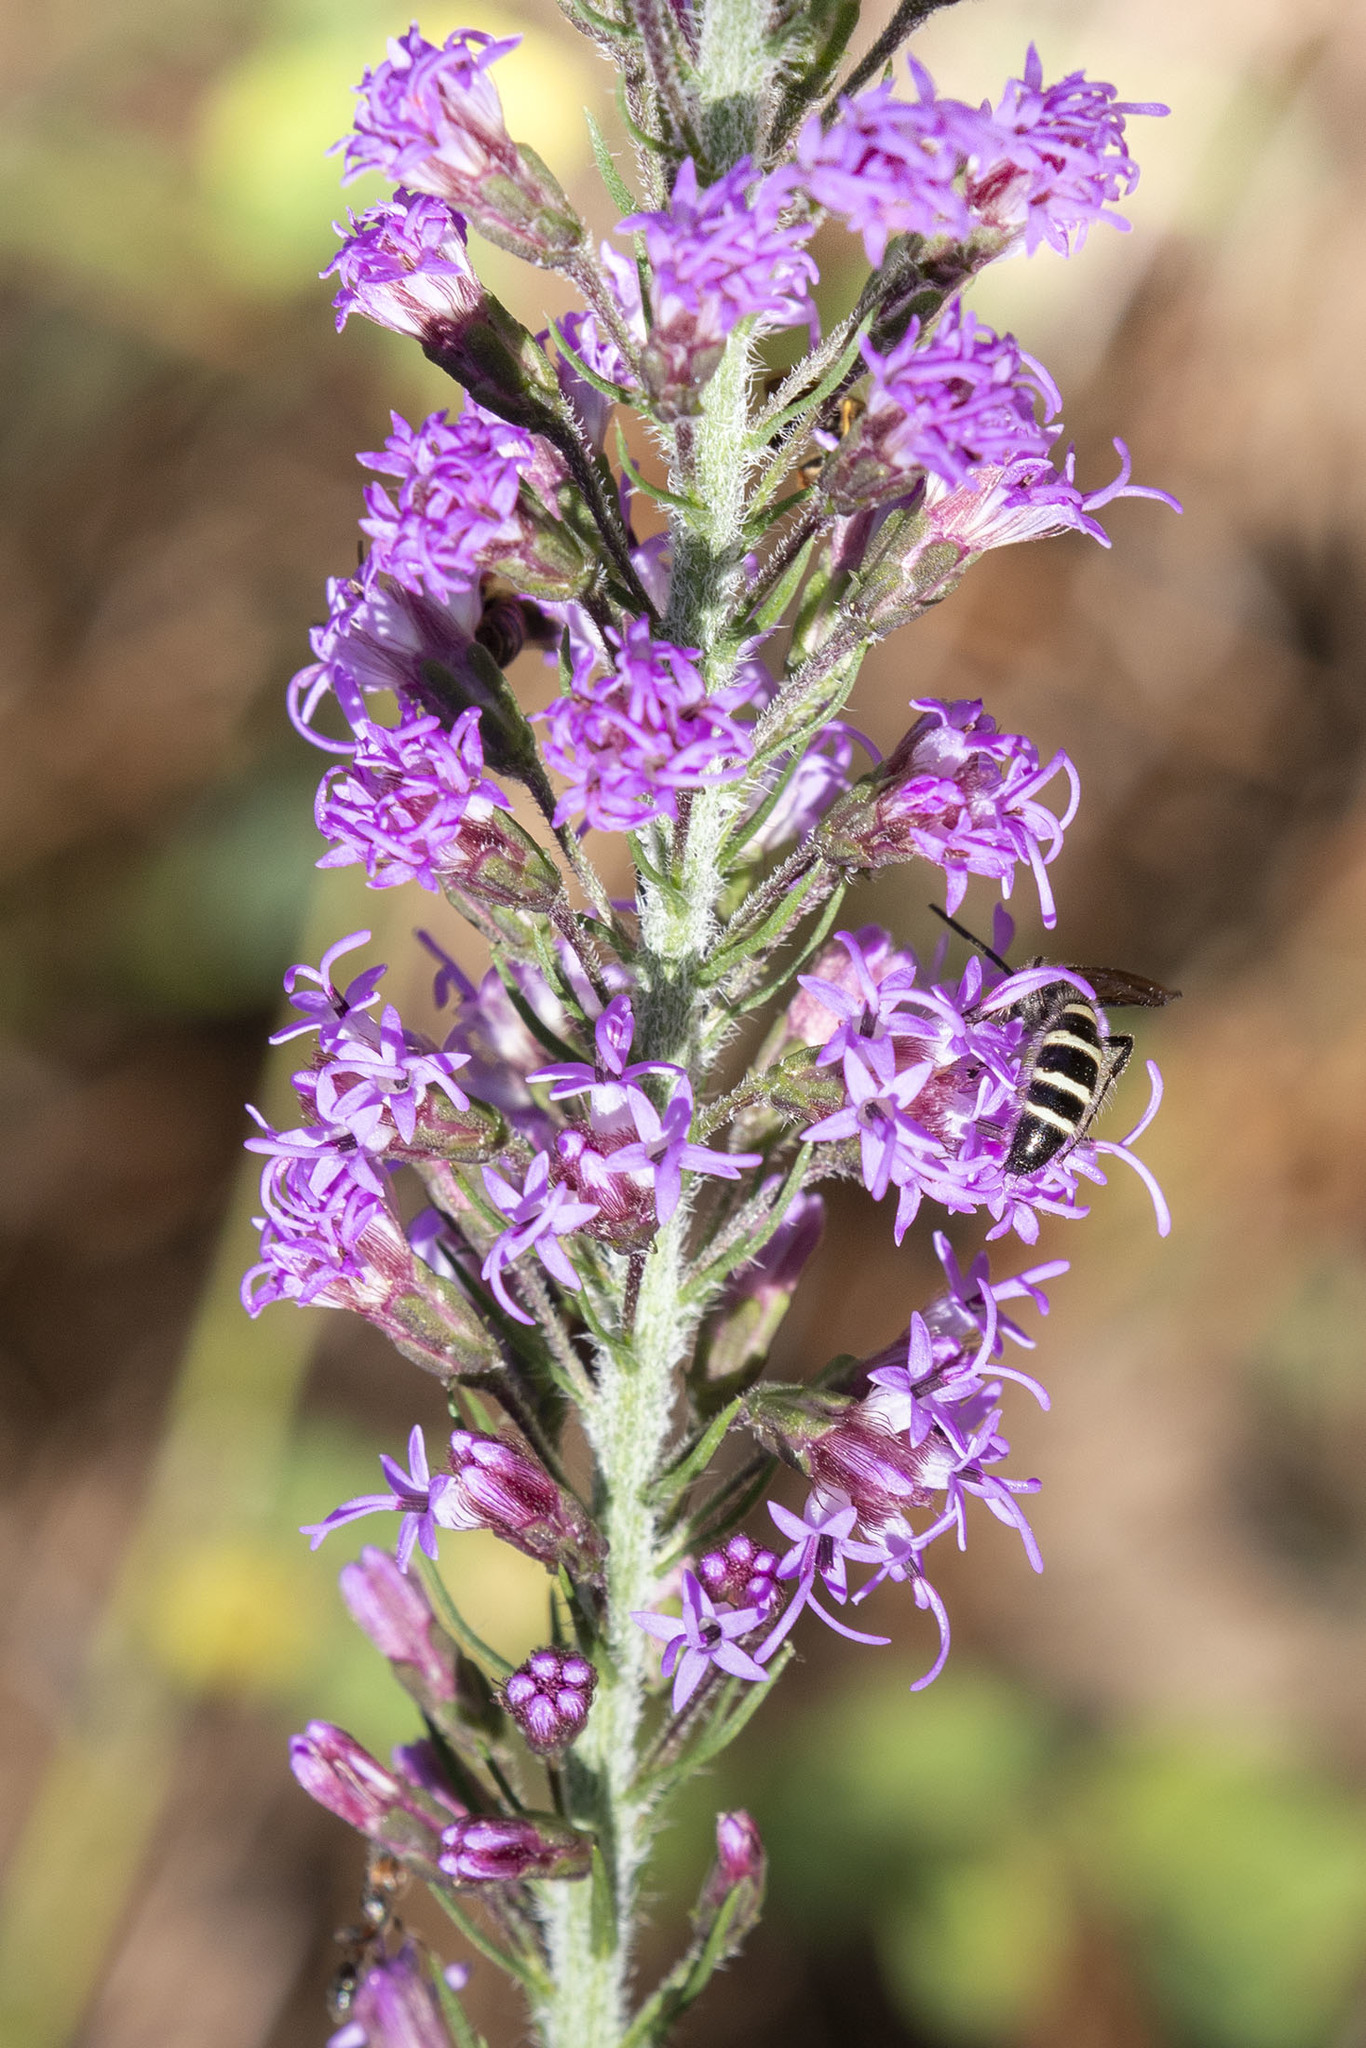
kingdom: Plantae
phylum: Tracheophyta
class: Magnoliopsida
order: Asterales
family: Asteraceae
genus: Liatris
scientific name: Liatris gracilis
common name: Slender gayfeather
